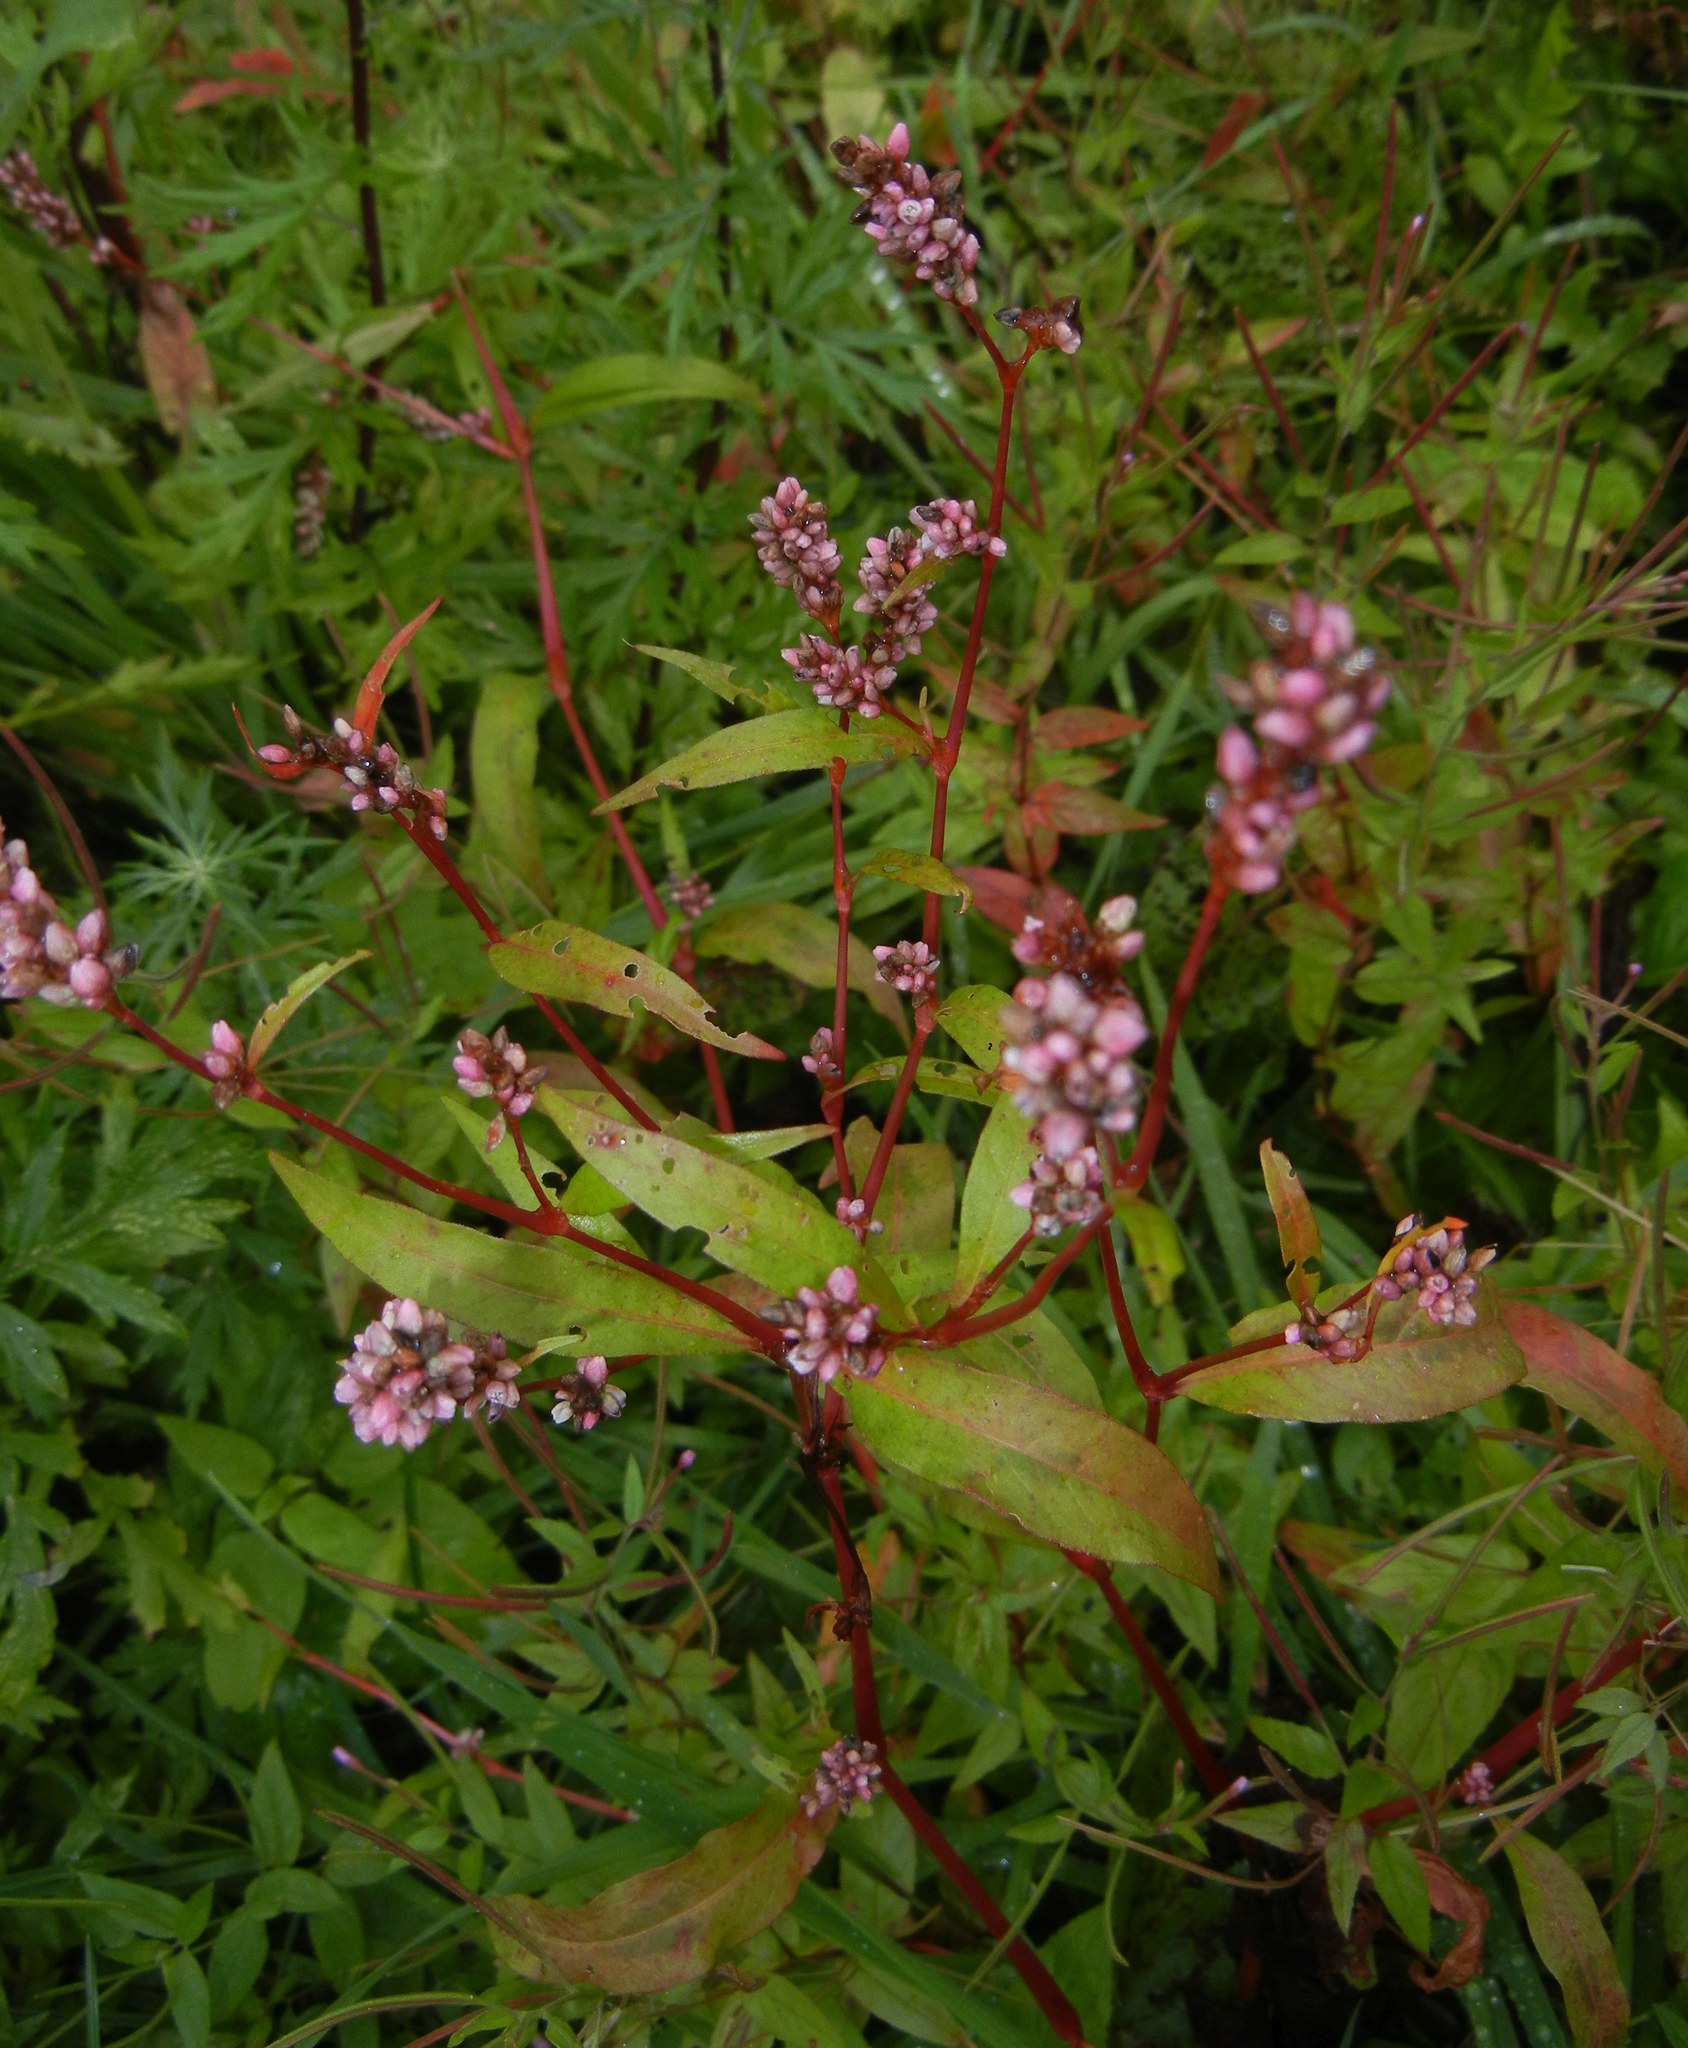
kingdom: Plantae
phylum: Tracheophyta
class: Magnoliopsida
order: Caryophyllales
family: Polygonaceae
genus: Persicaria
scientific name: Persicaria maculosa
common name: Redshank
